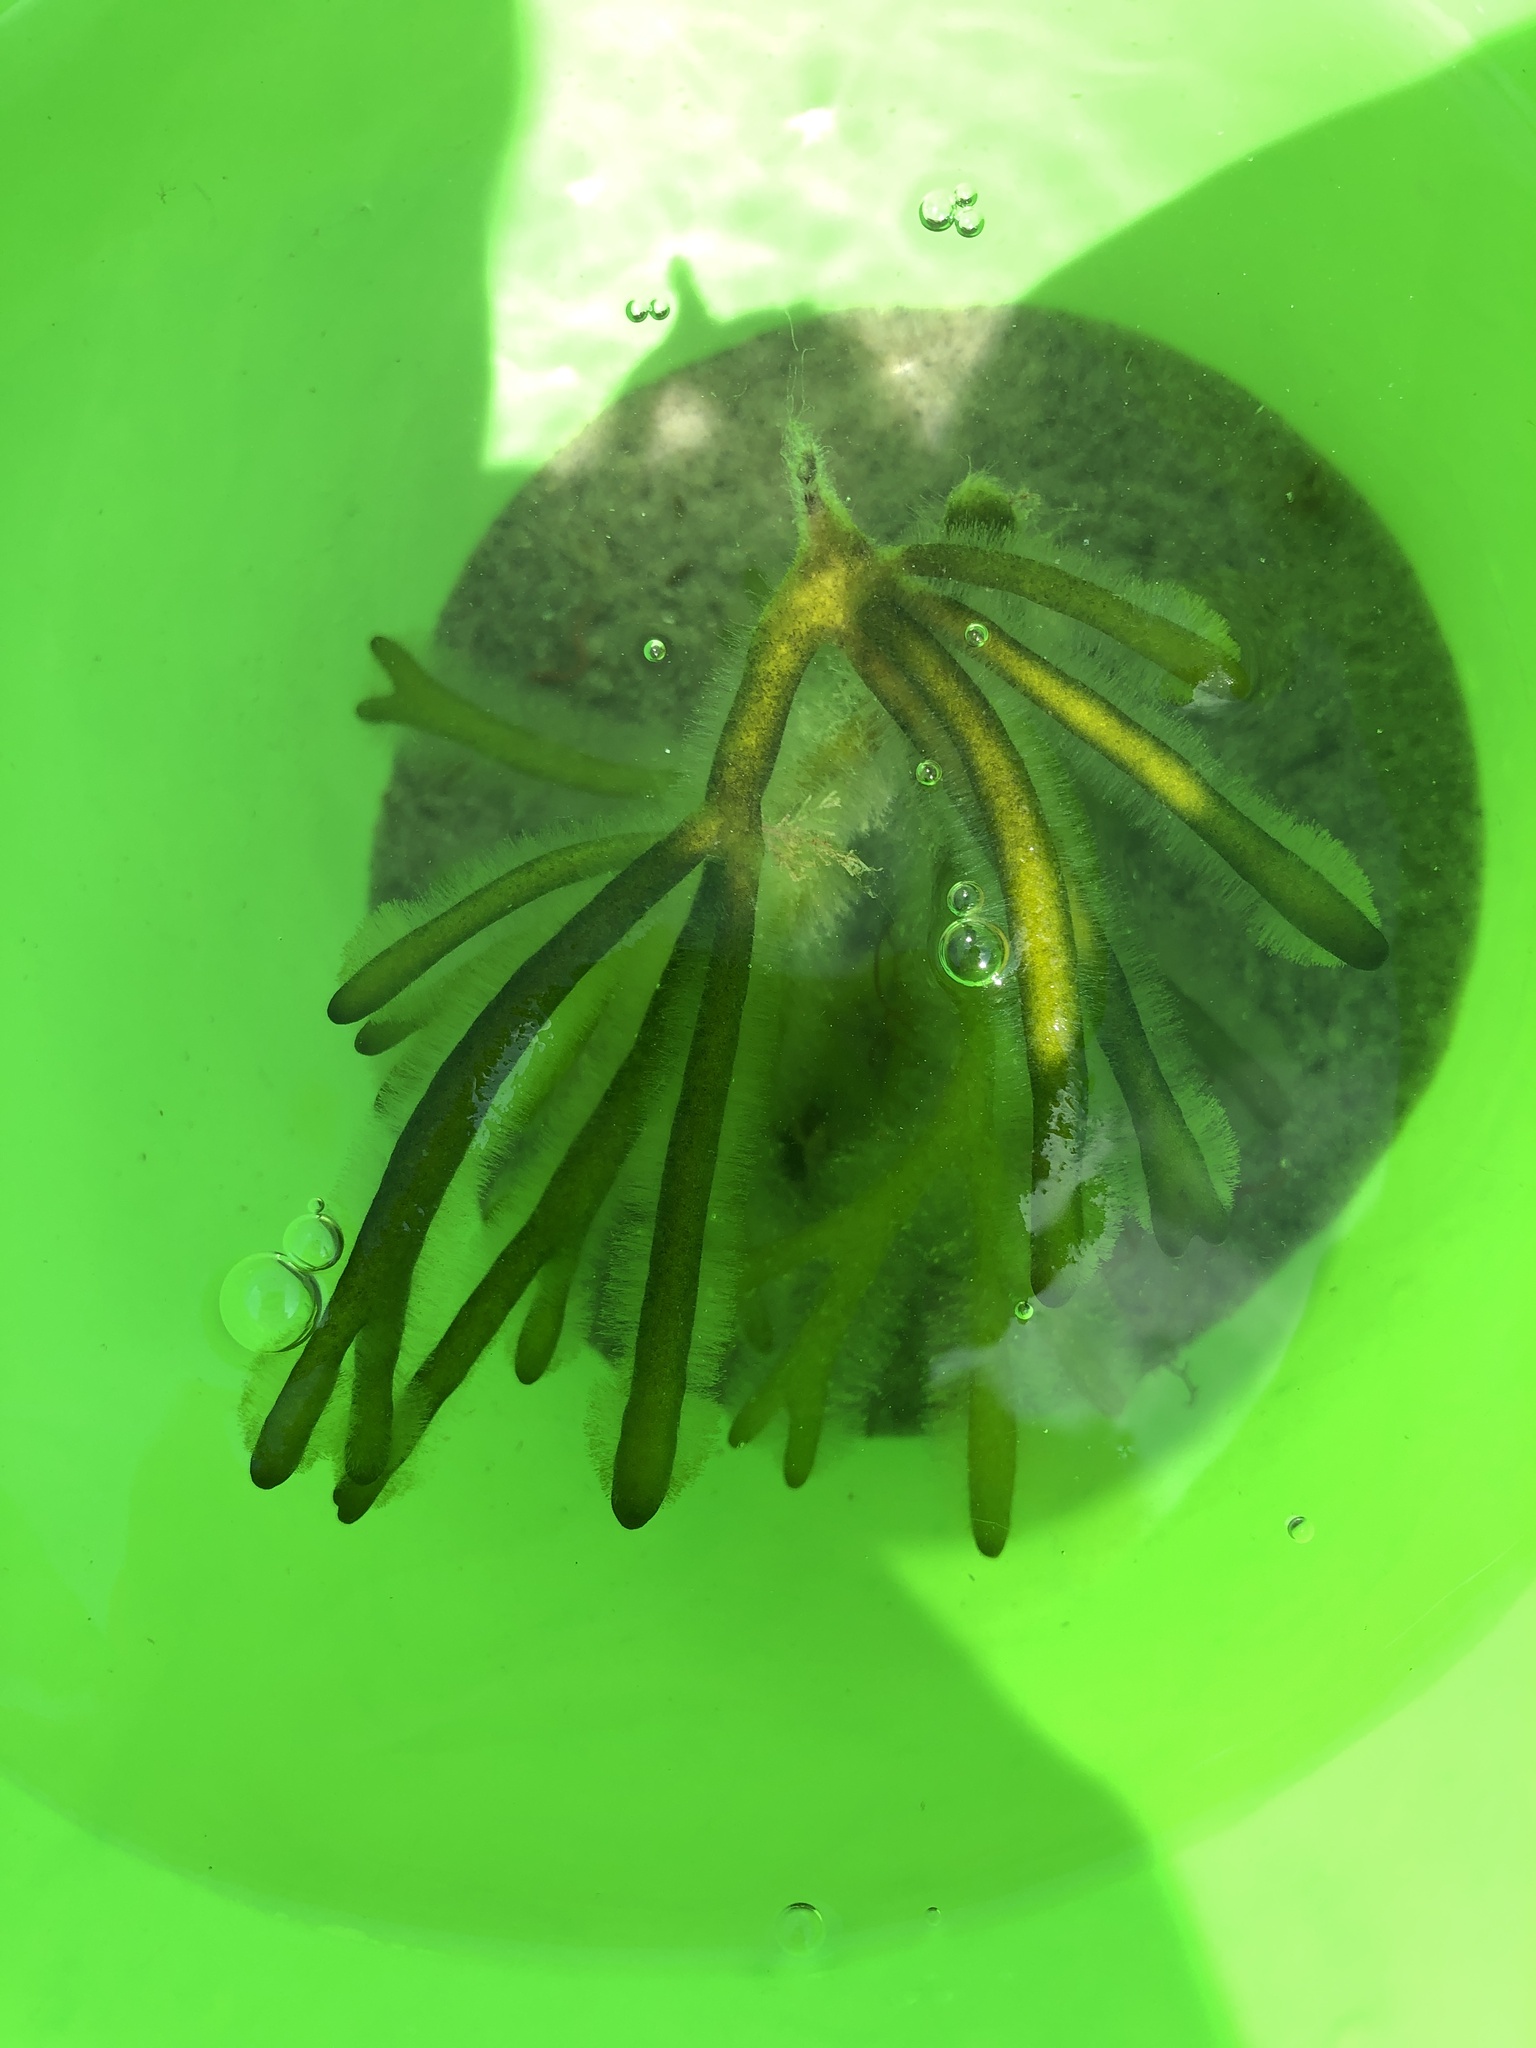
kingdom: Plantae
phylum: Chlorophyta
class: Ulvophyceae
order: Bryopsidales
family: Codiaceae
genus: Codium
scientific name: Codium fragile
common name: Dead man's fingers
